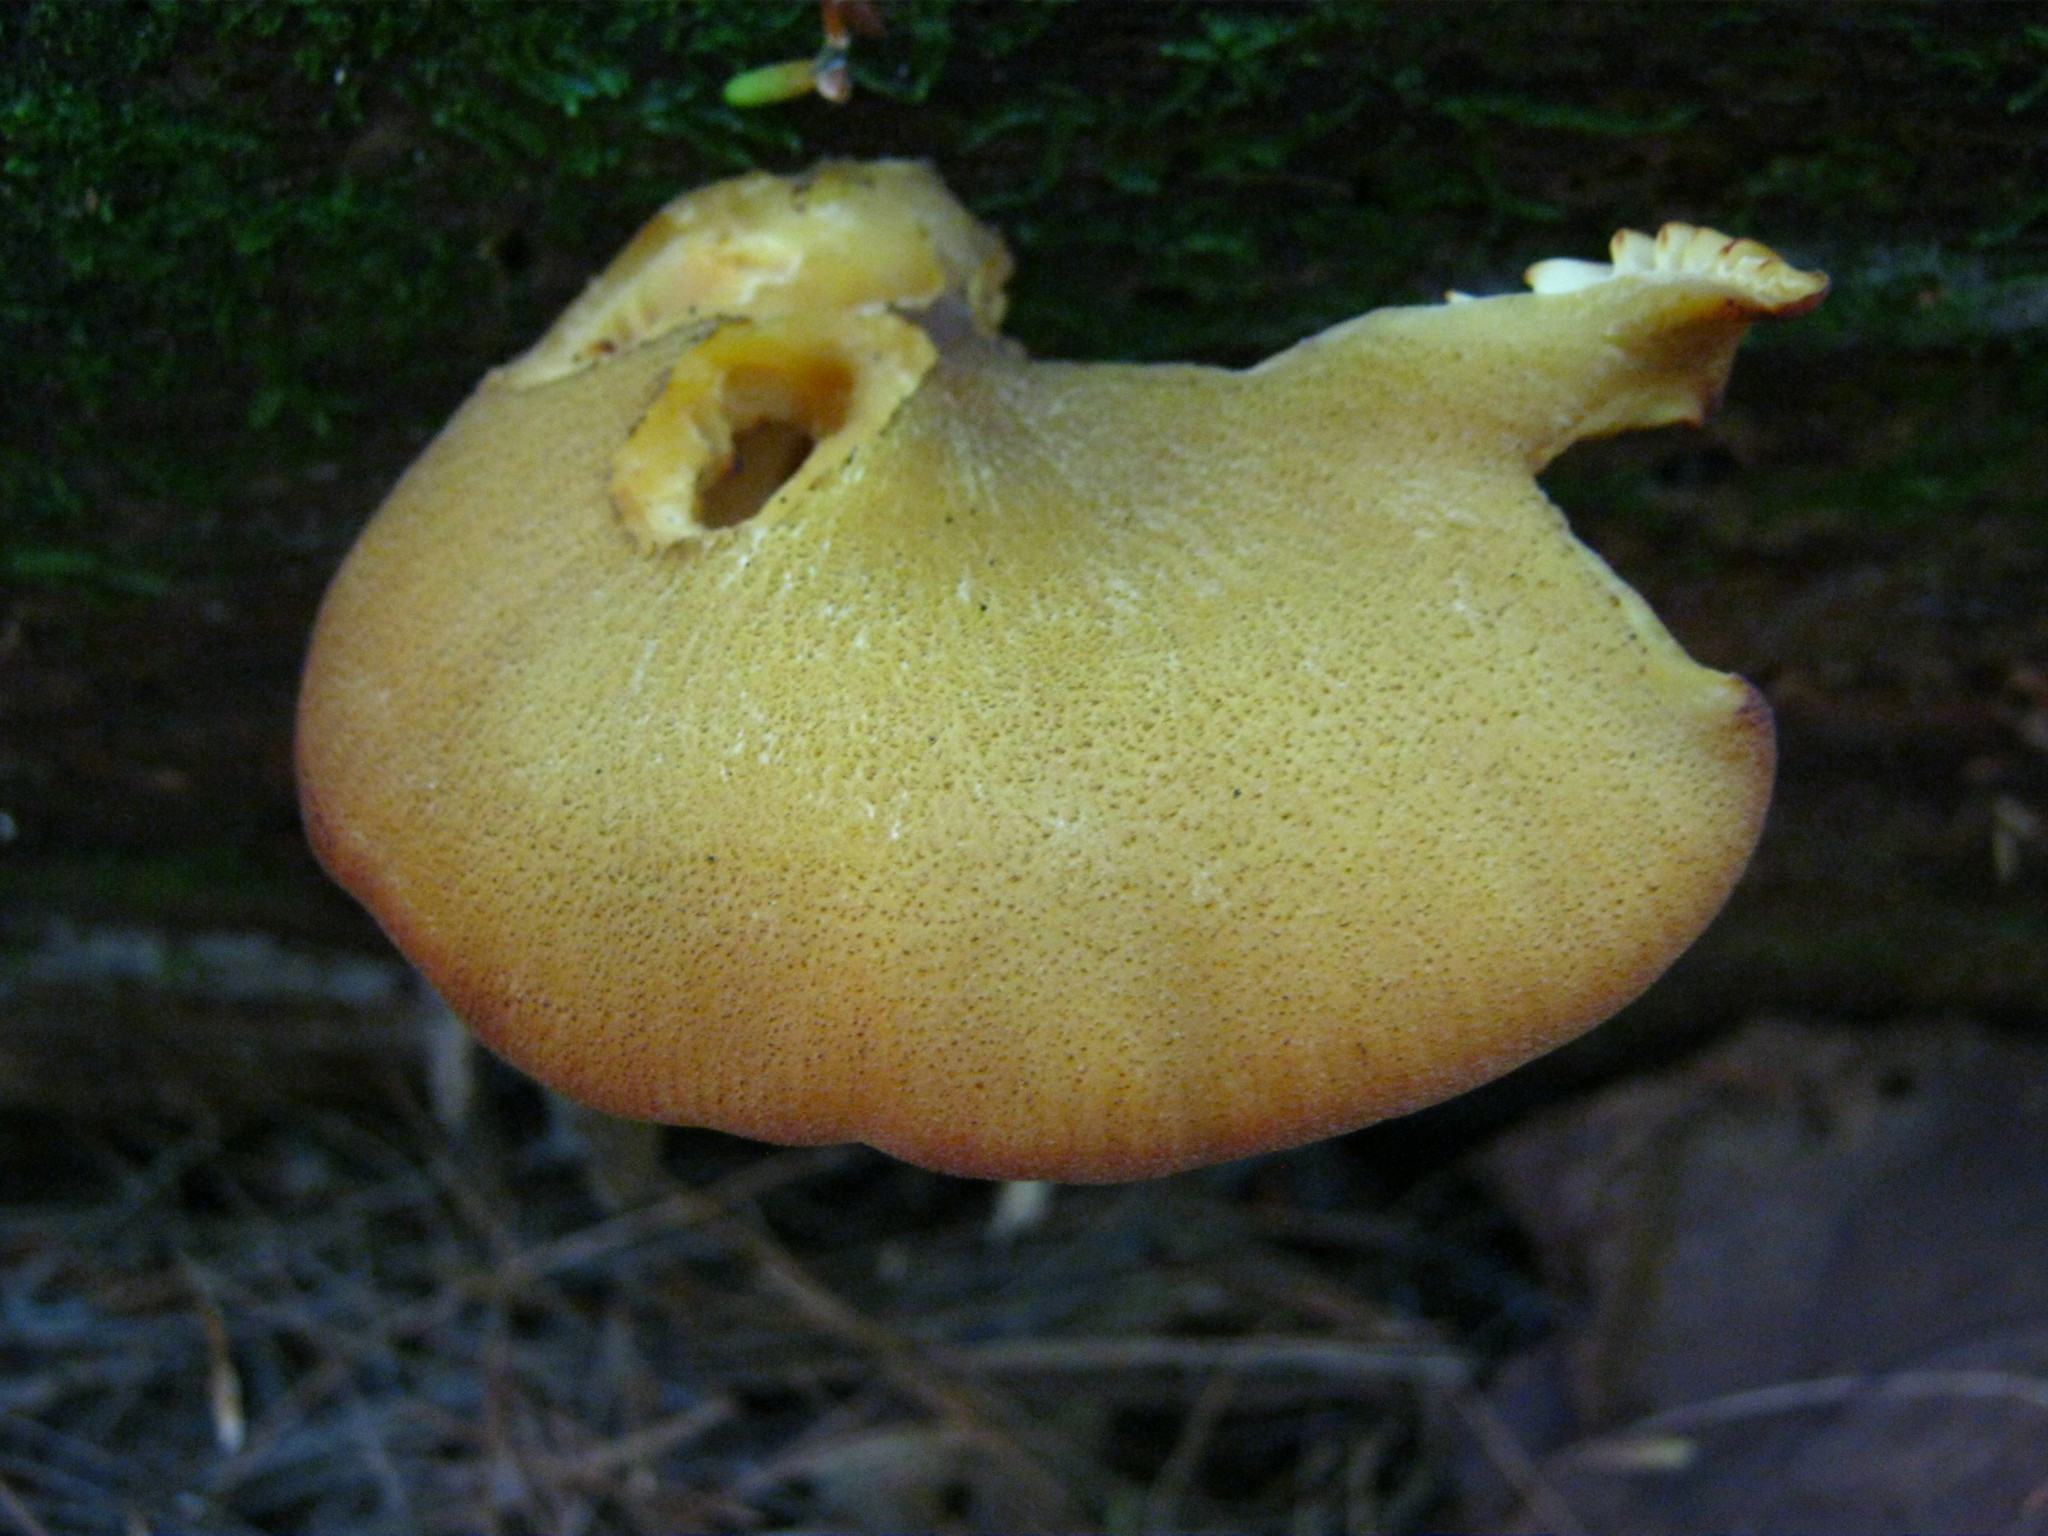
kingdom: Fungi
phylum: Basidiomycota
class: Agaricomycetes
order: Agaricales
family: Tricholomataceae
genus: Tricholomopsis
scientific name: Tricholomopsis decora
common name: Prunes and custard
